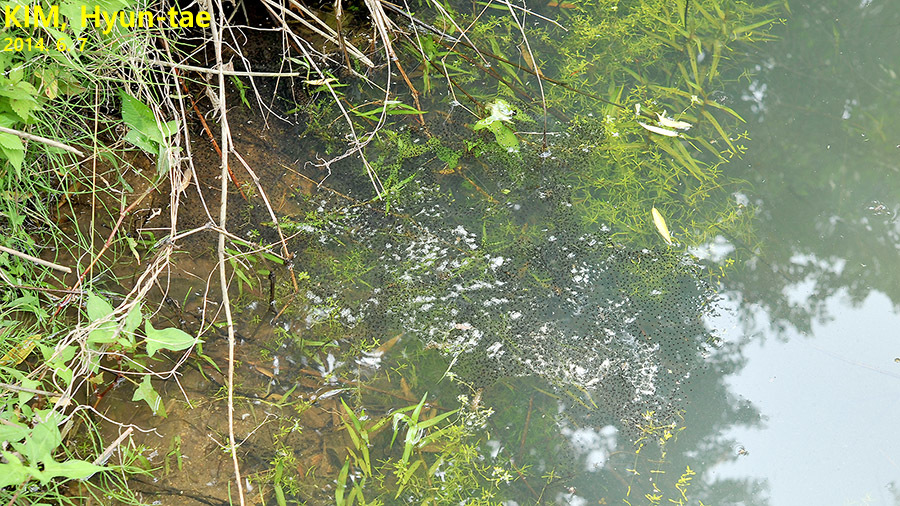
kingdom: Animalia
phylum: Chordata
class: Amphibia
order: Anura
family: Ranidae
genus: Lithobates
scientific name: Lithobates catesbeianus
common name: American bullfrog
